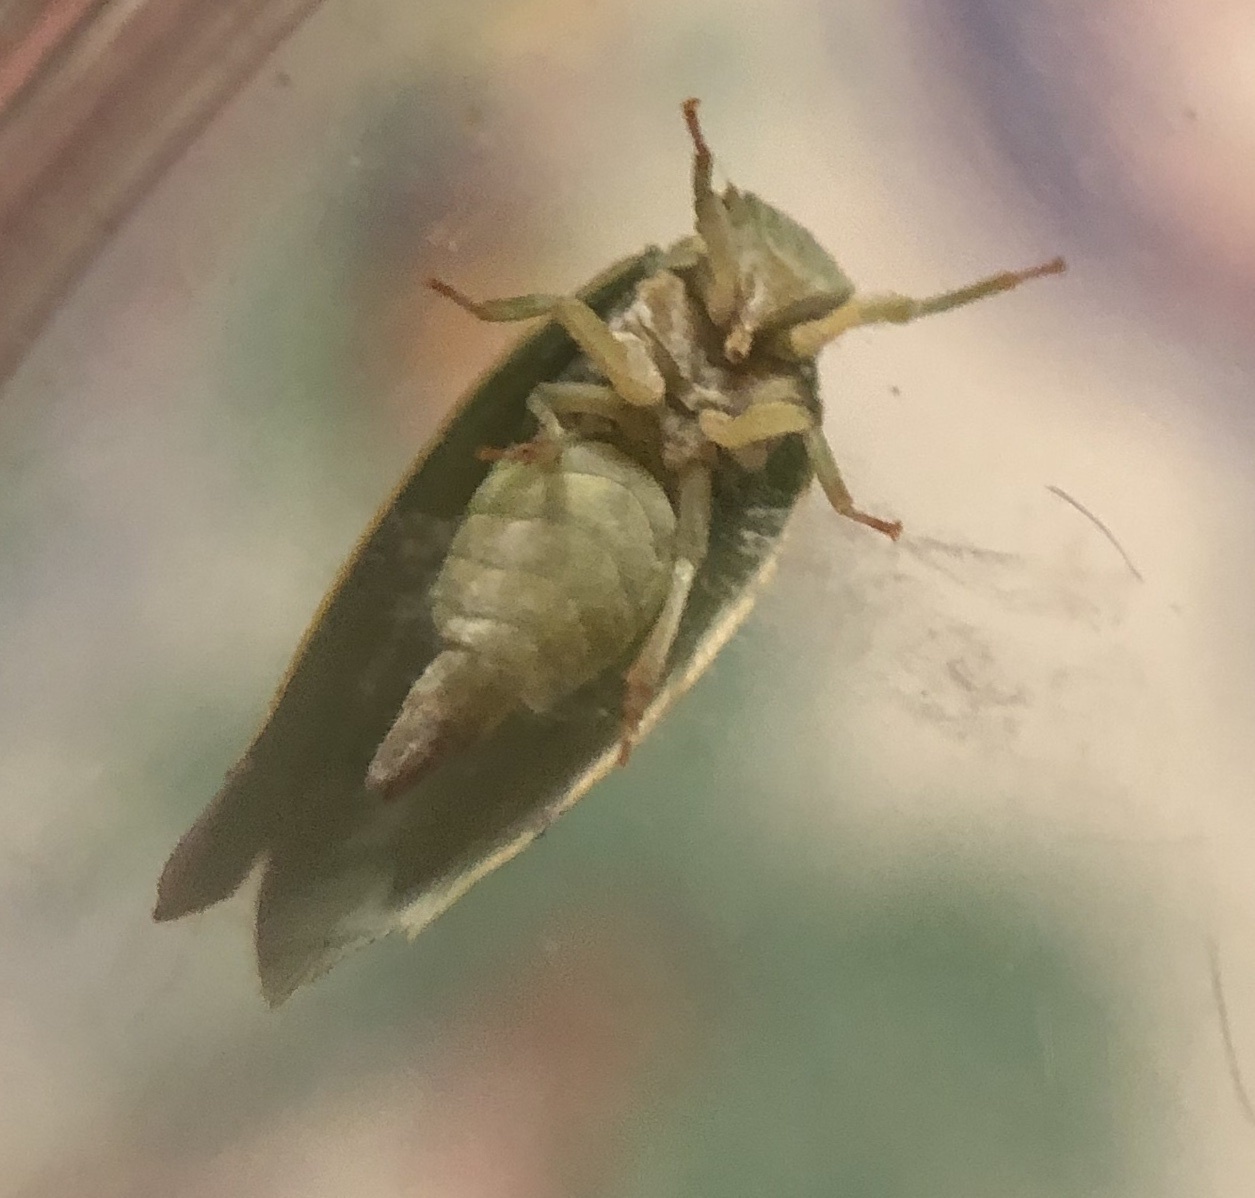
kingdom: Animalia
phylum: Arthropoda
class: Insecta
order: Hemiptera
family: Flatidae
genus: Flatormenis
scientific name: Flatormenis proxima
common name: Northern flatid planthopper
